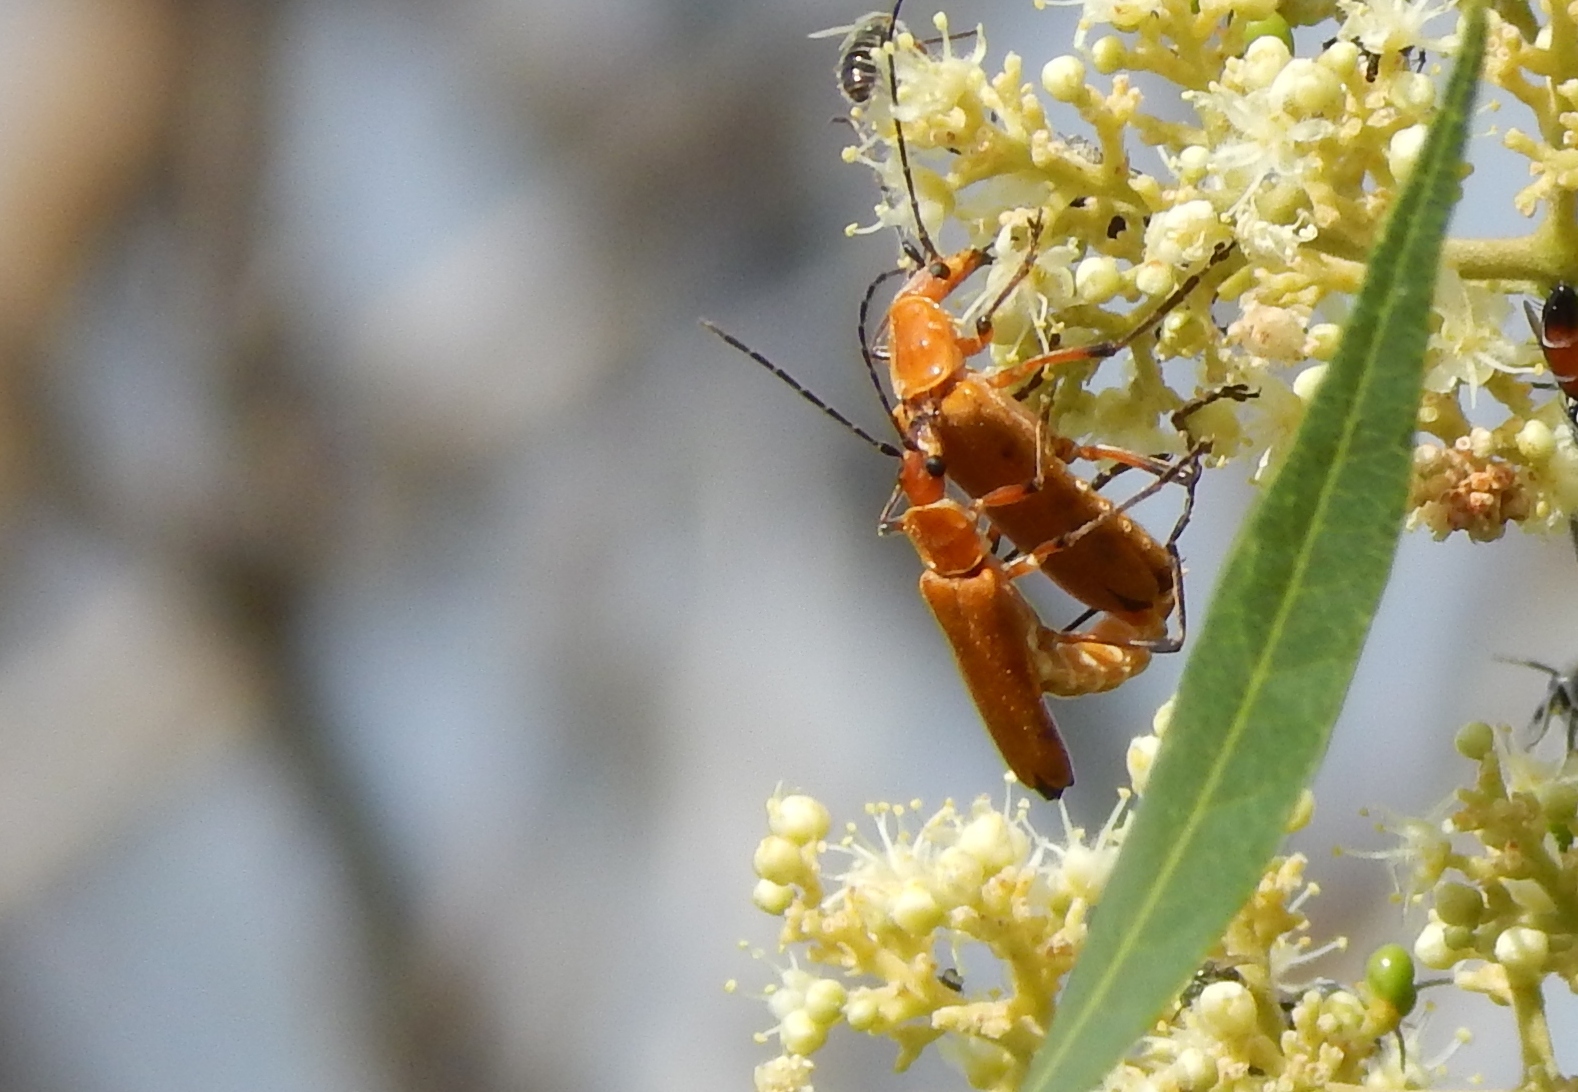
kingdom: Animalia
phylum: Arthropoda
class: Insecta
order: Coleoptera
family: Cantharidae
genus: Chauliognathus
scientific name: Chauliognathus discus
